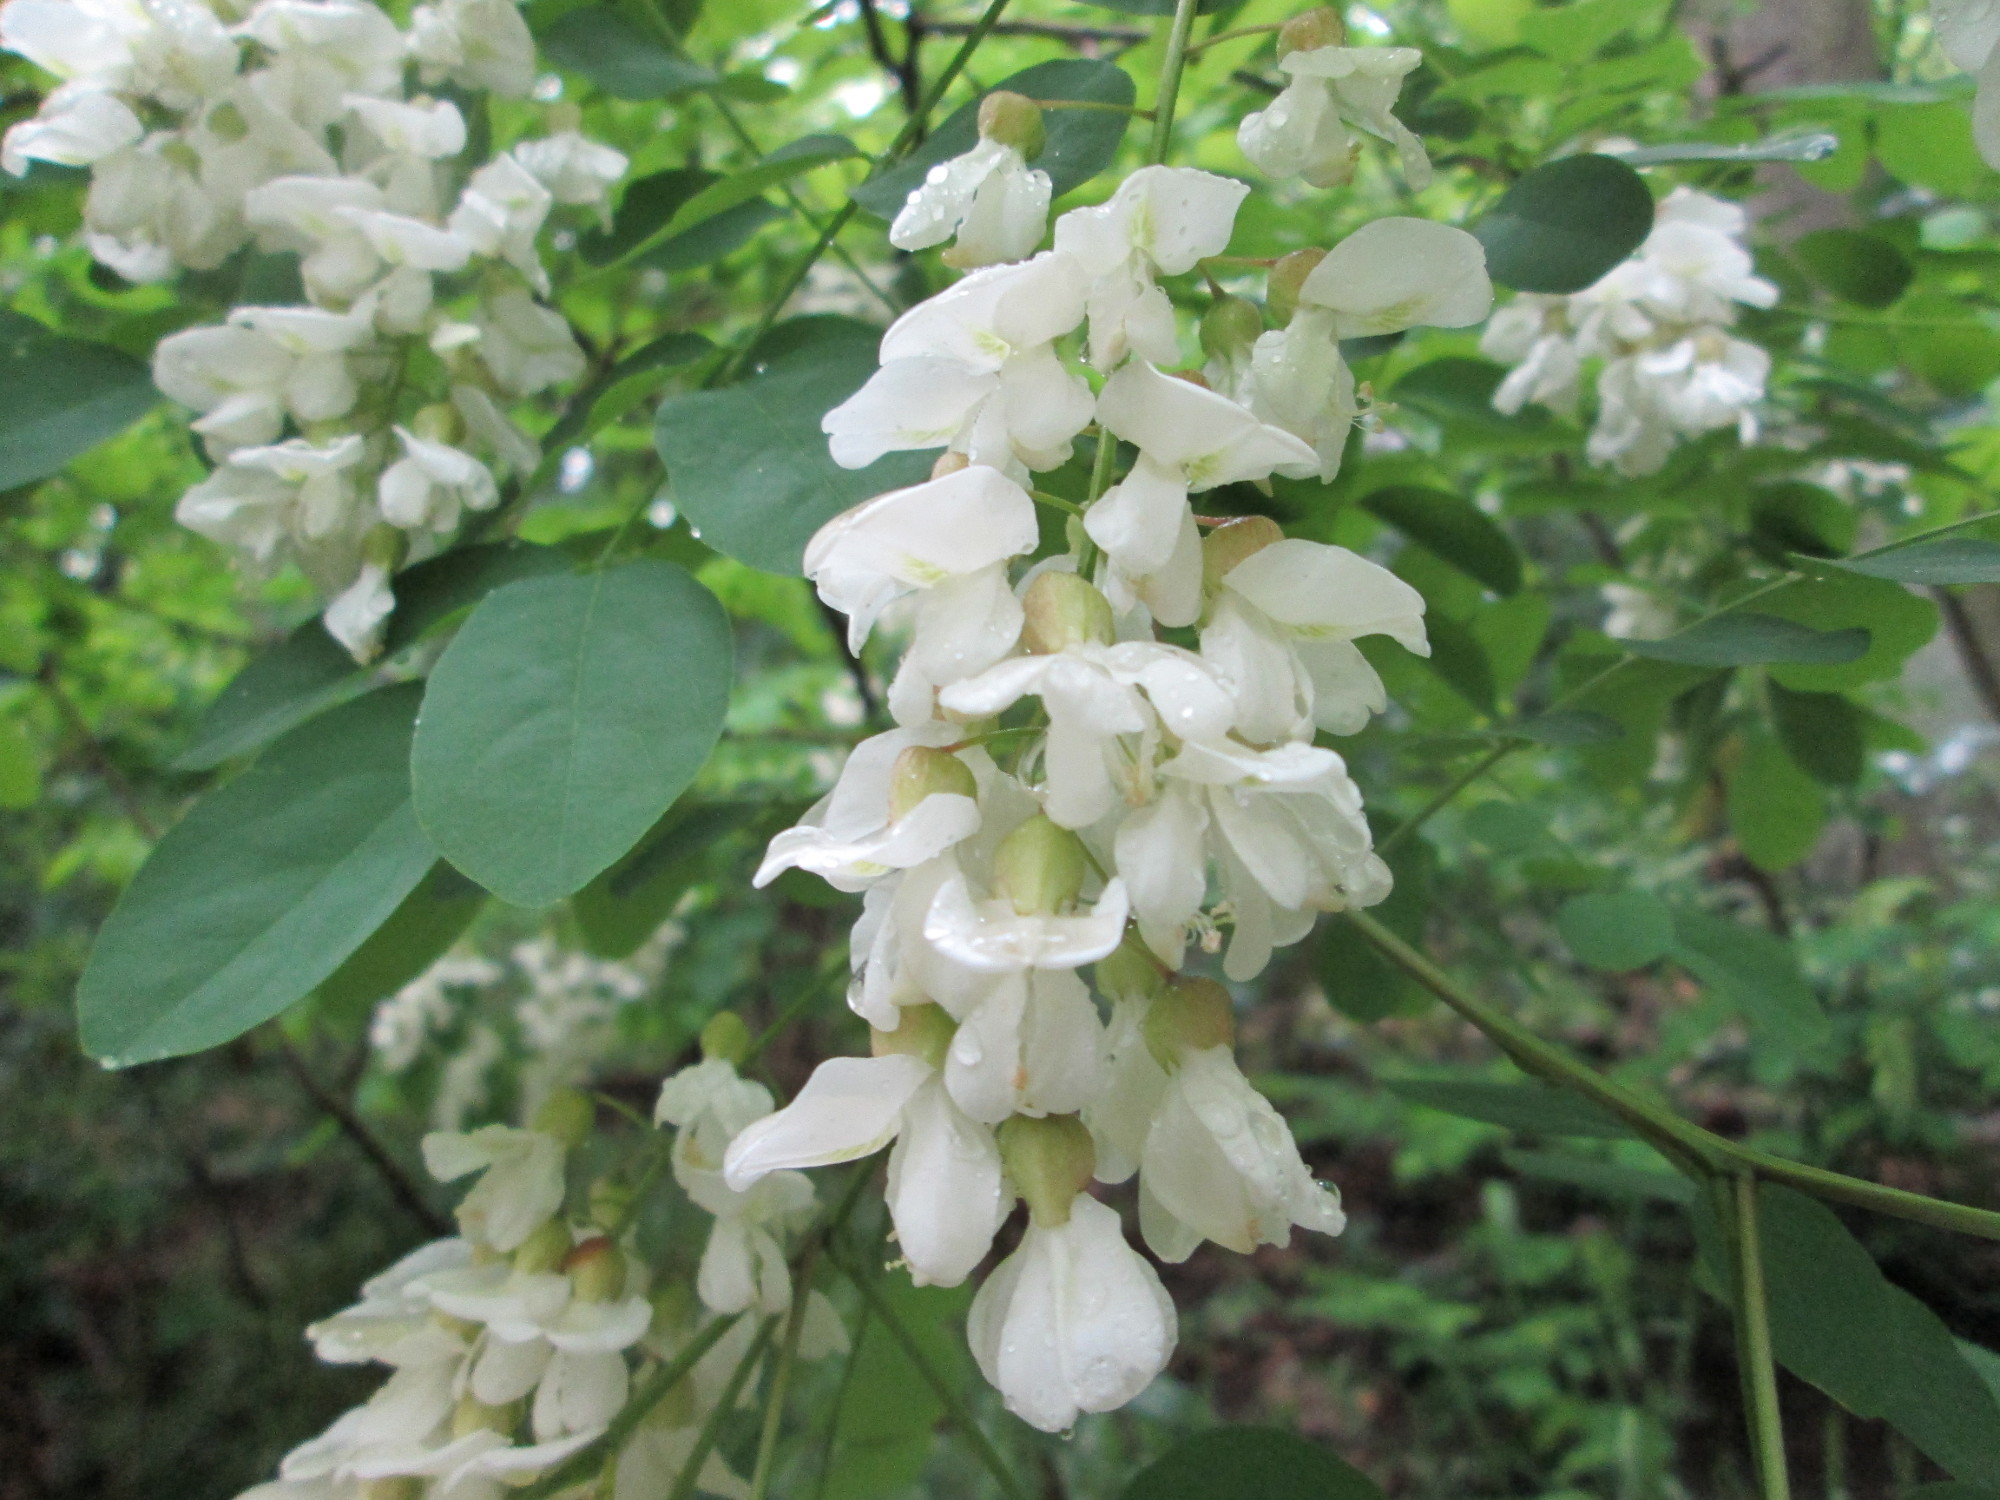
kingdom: Plantae
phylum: Tracheophyta
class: Magnoliopsida
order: Fabales
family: Fabaceae
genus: Robinia
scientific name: Robinia pseudoacacia
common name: Black locust
